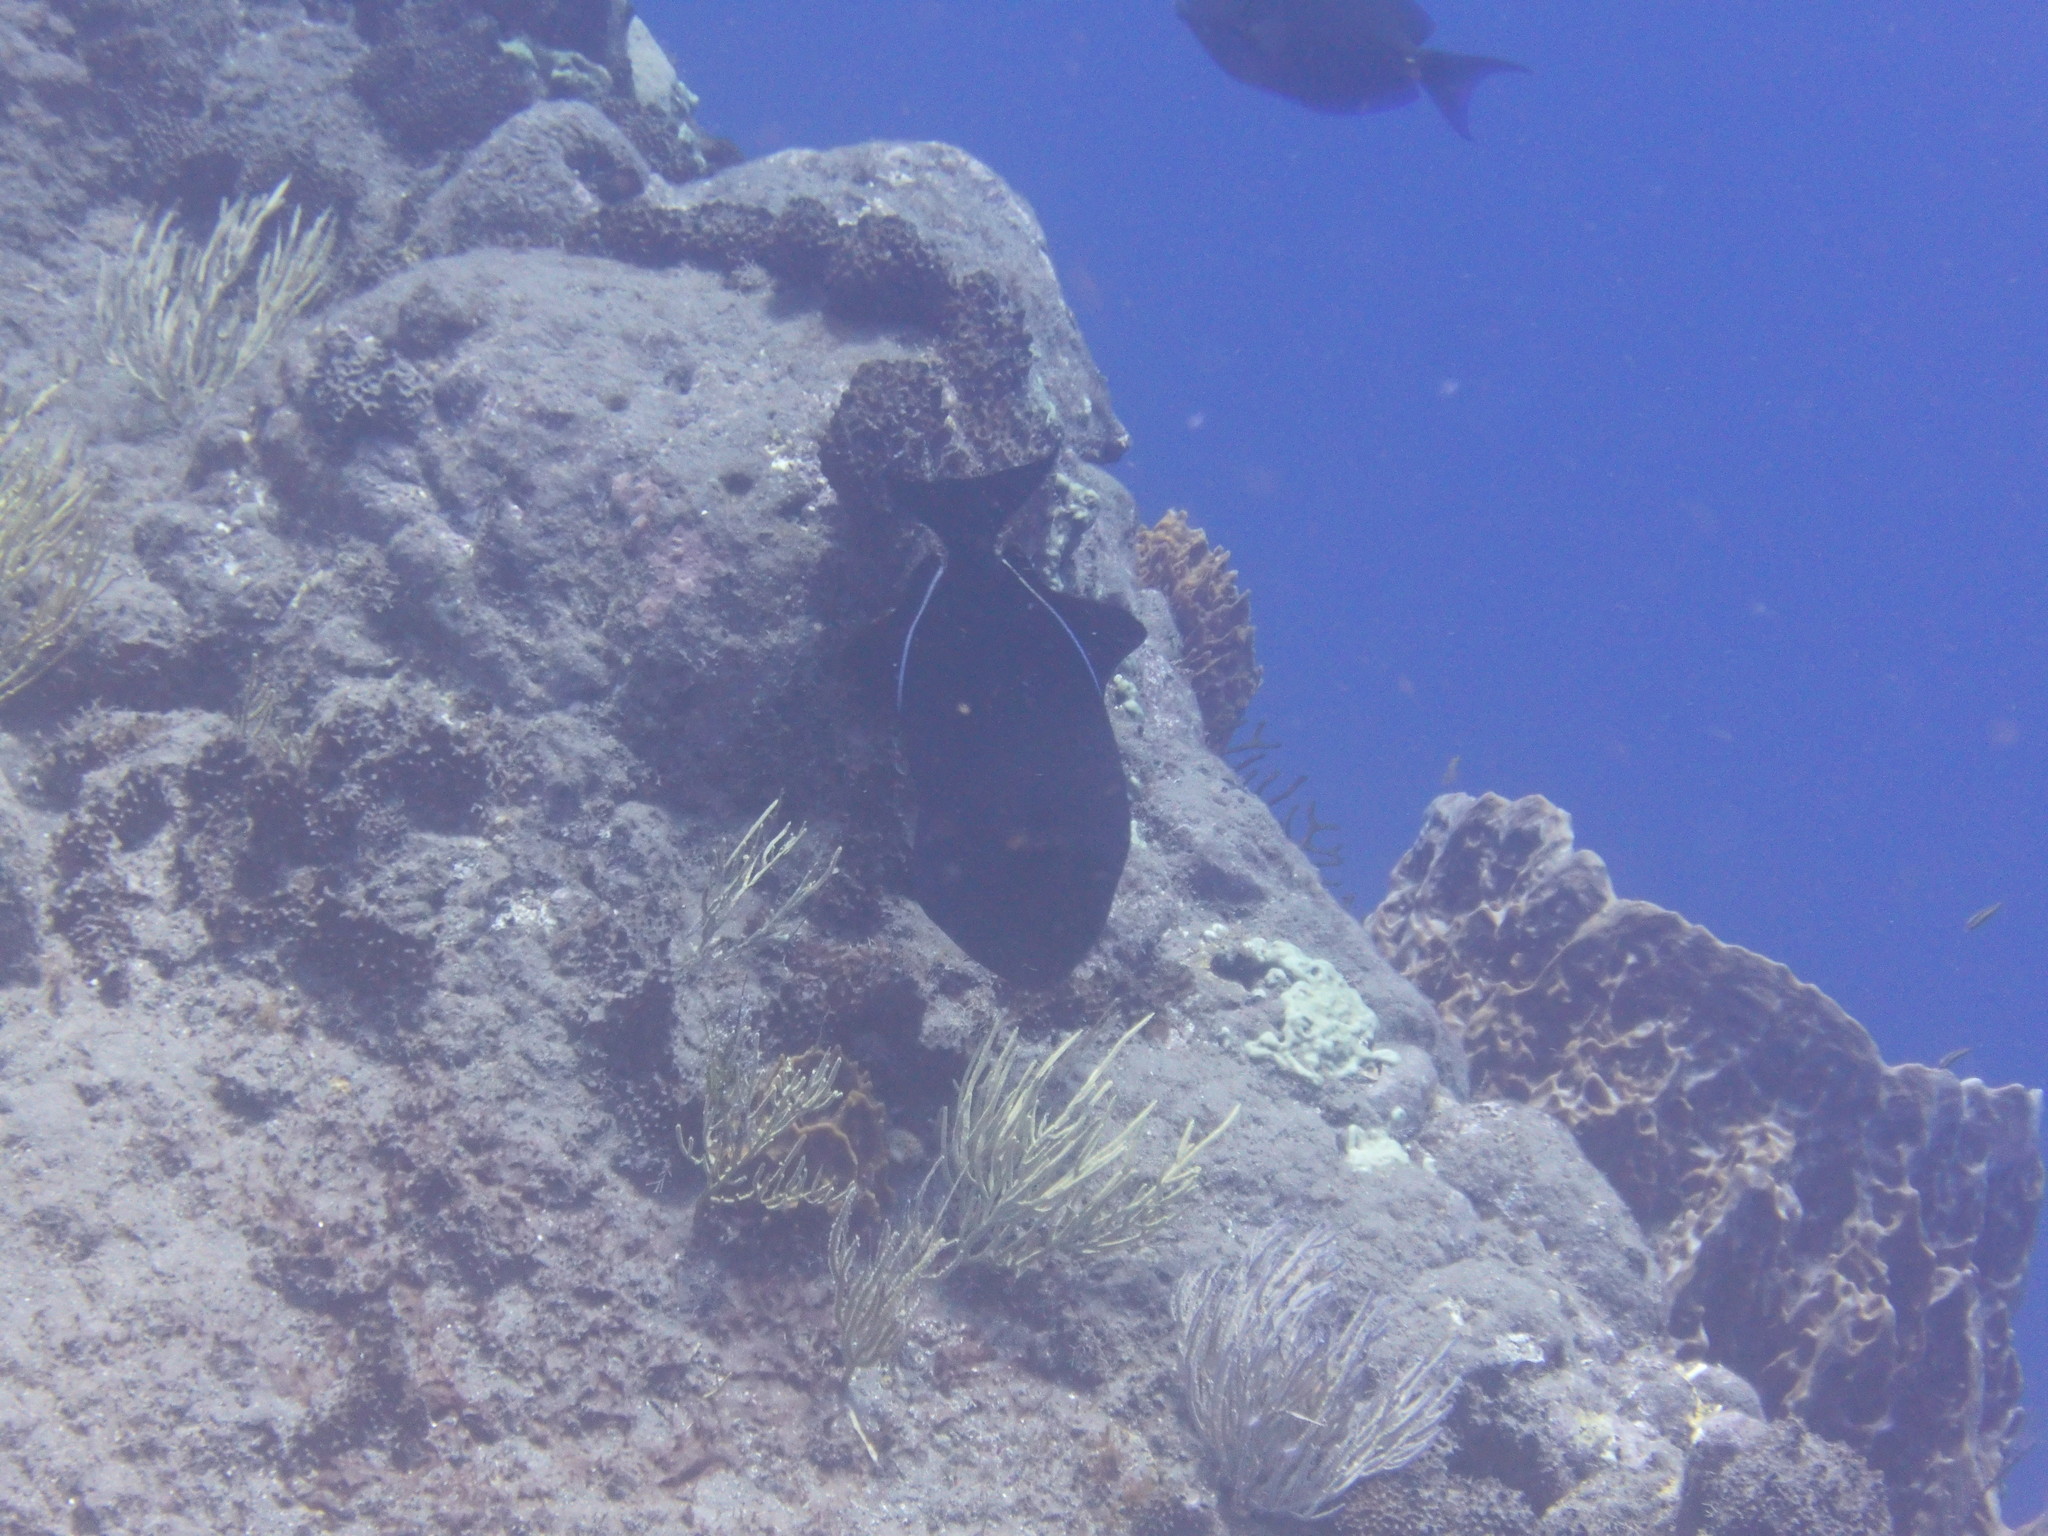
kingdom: Animalia
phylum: Chordata
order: Tetraodontiformes
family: Balistidae
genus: Melichthys
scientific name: Melichthys niger
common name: Black durgon
